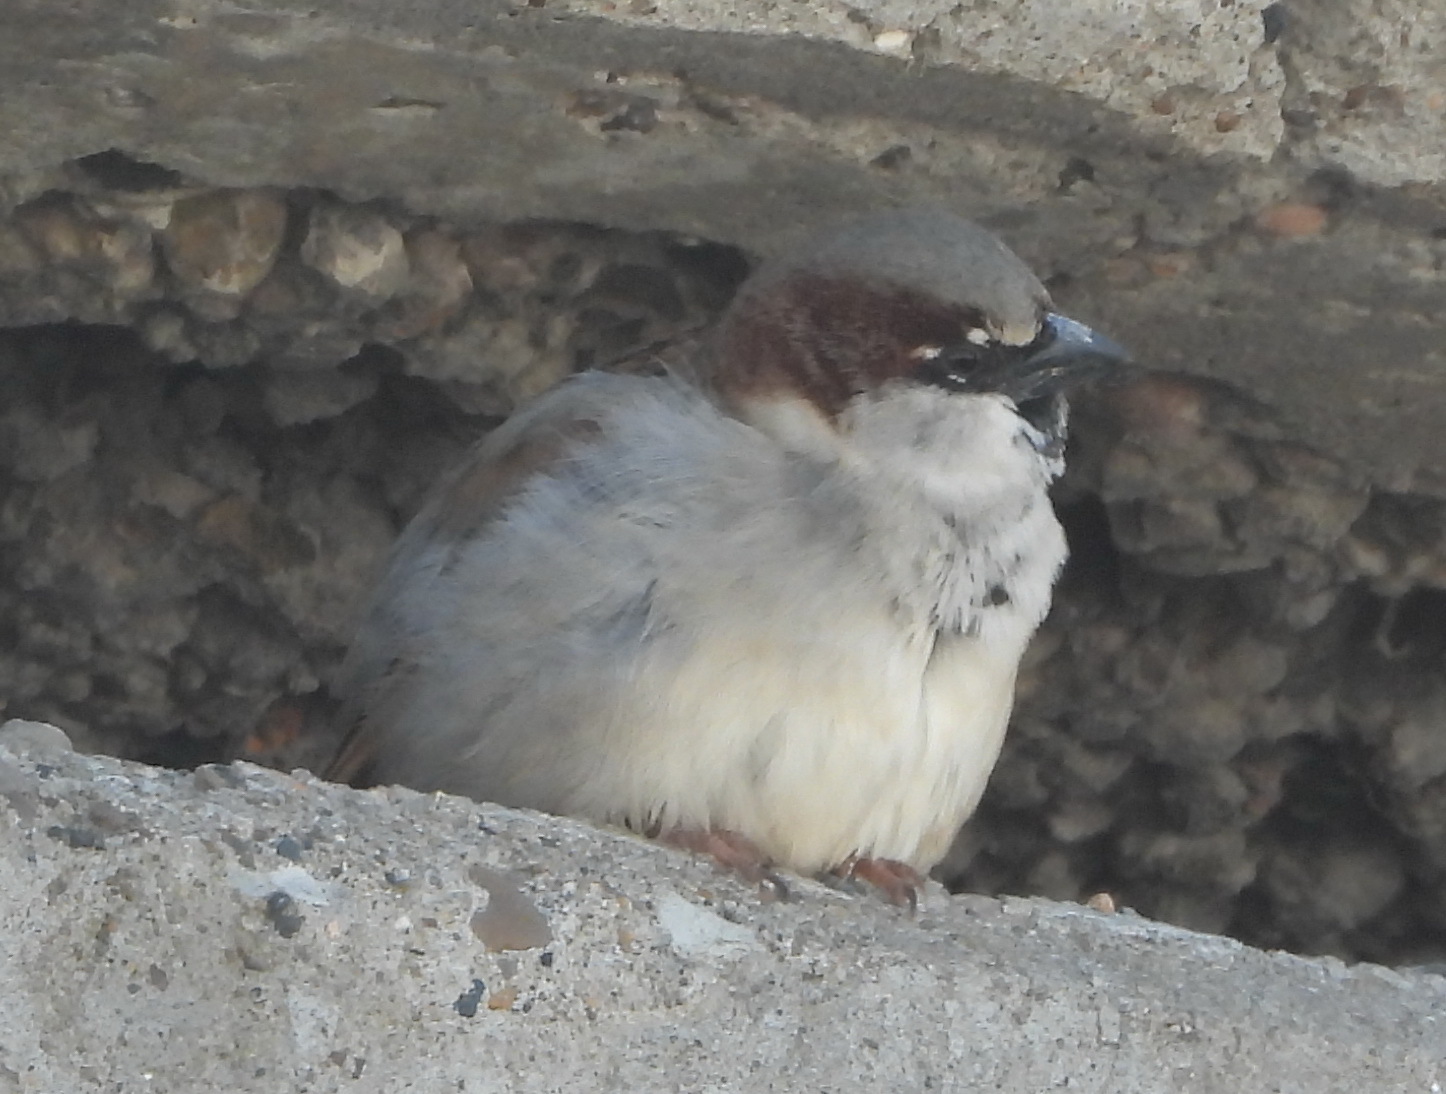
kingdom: Animalia
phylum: Chordata
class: Aves
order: Passeriformes
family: Passeridae
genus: Passer
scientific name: Passer domesticus
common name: House sparrow
